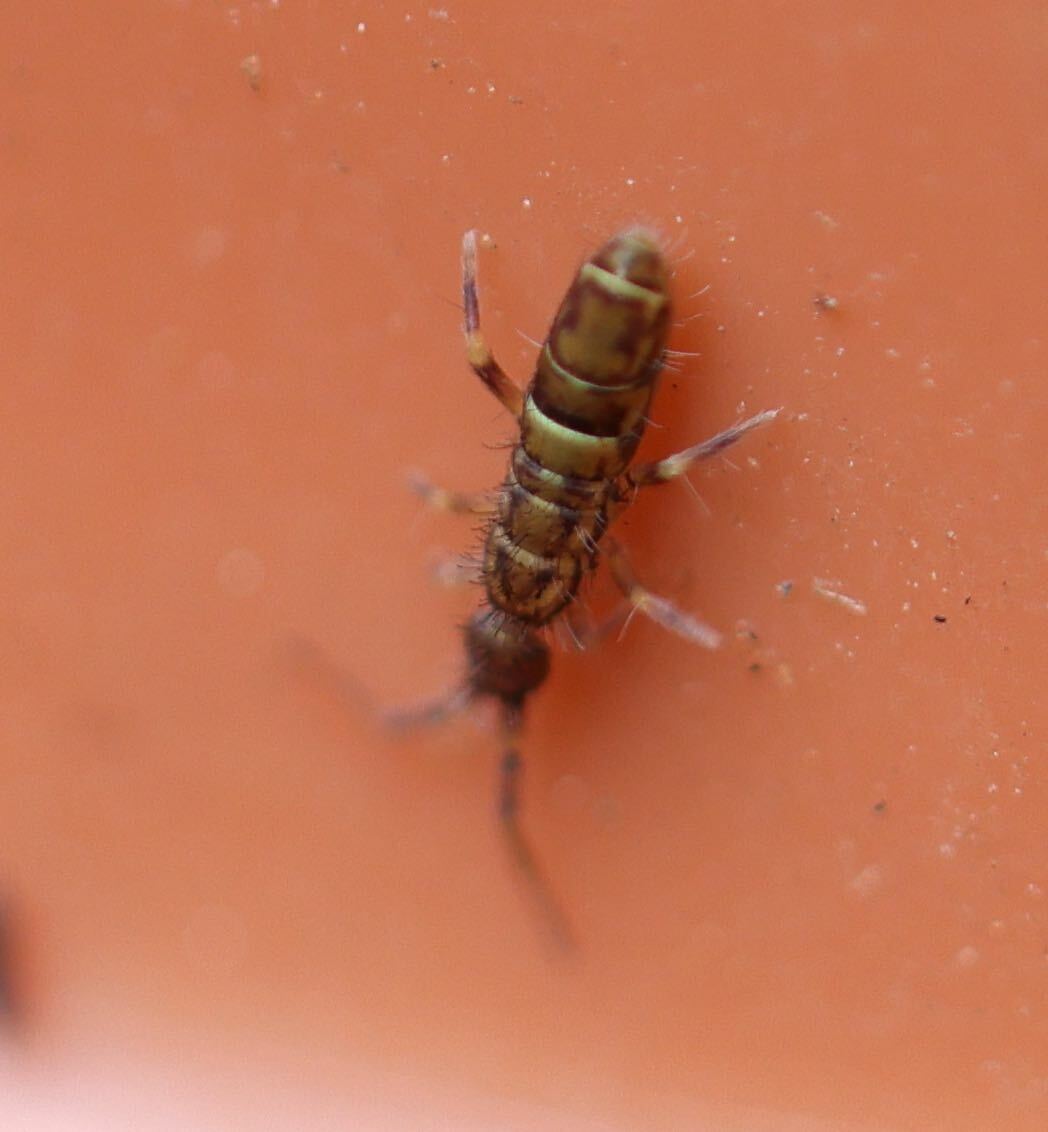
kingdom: Animalia
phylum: Arthropoda
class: Collembola
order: Entomobryomorpha
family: Orchesellidae
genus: Orchesella
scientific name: Orchesella cincta
